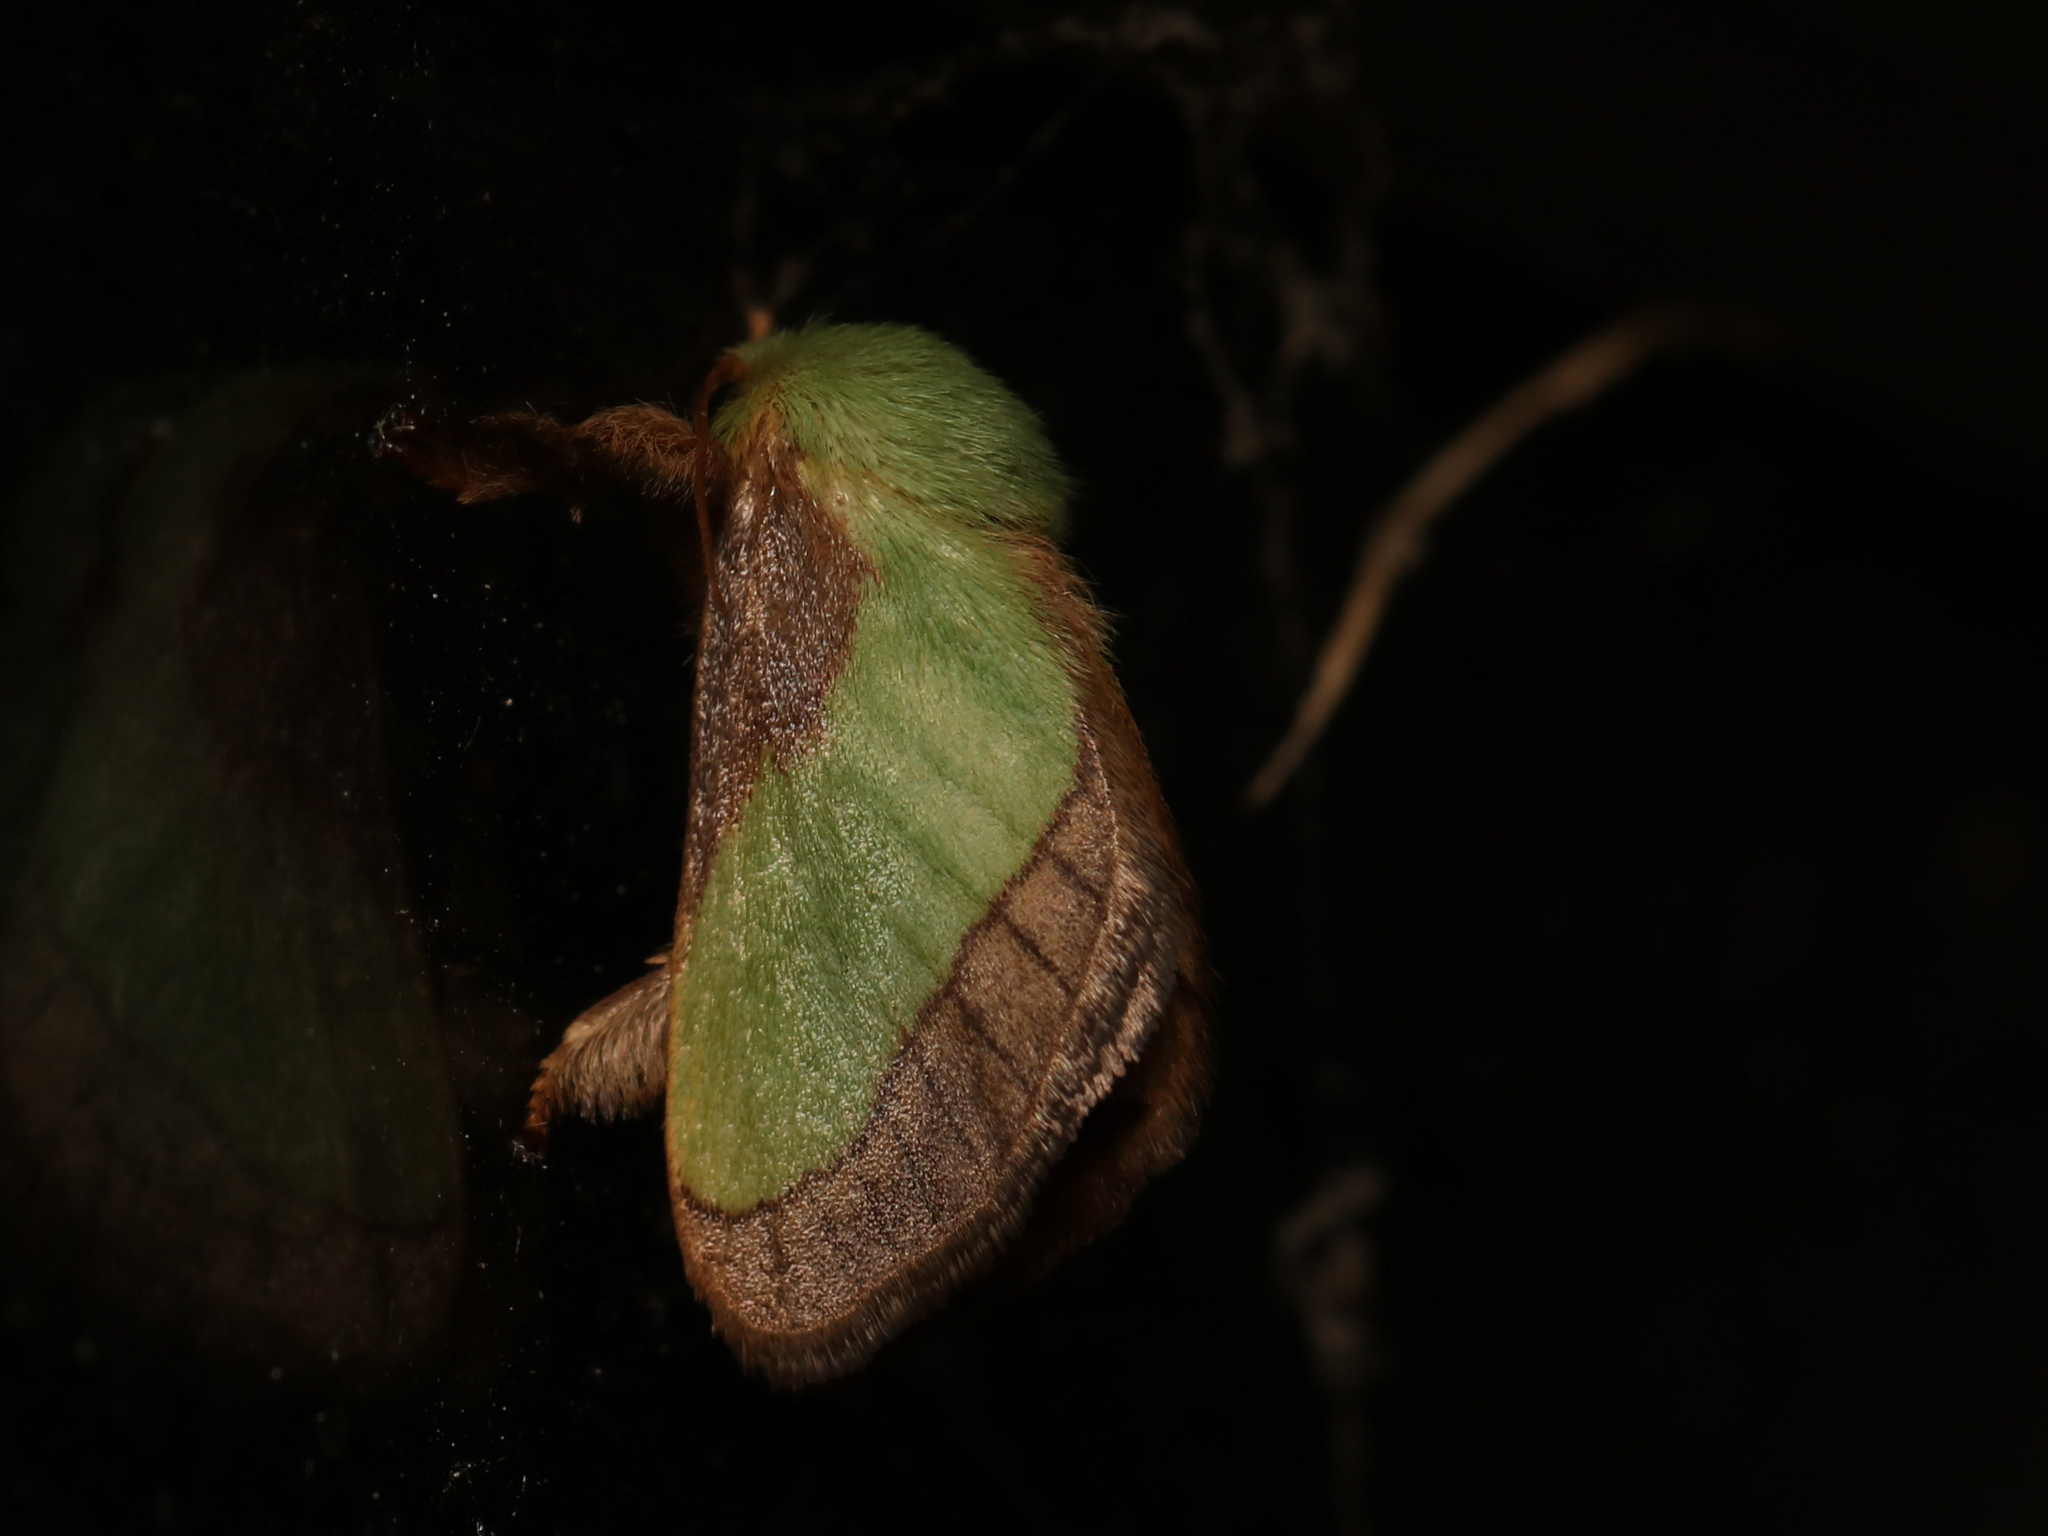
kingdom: Animalia
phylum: Arthropoda
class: Insecta
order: Lepidoptera
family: Limacodidae
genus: Parasa
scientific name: Parasa chloris
